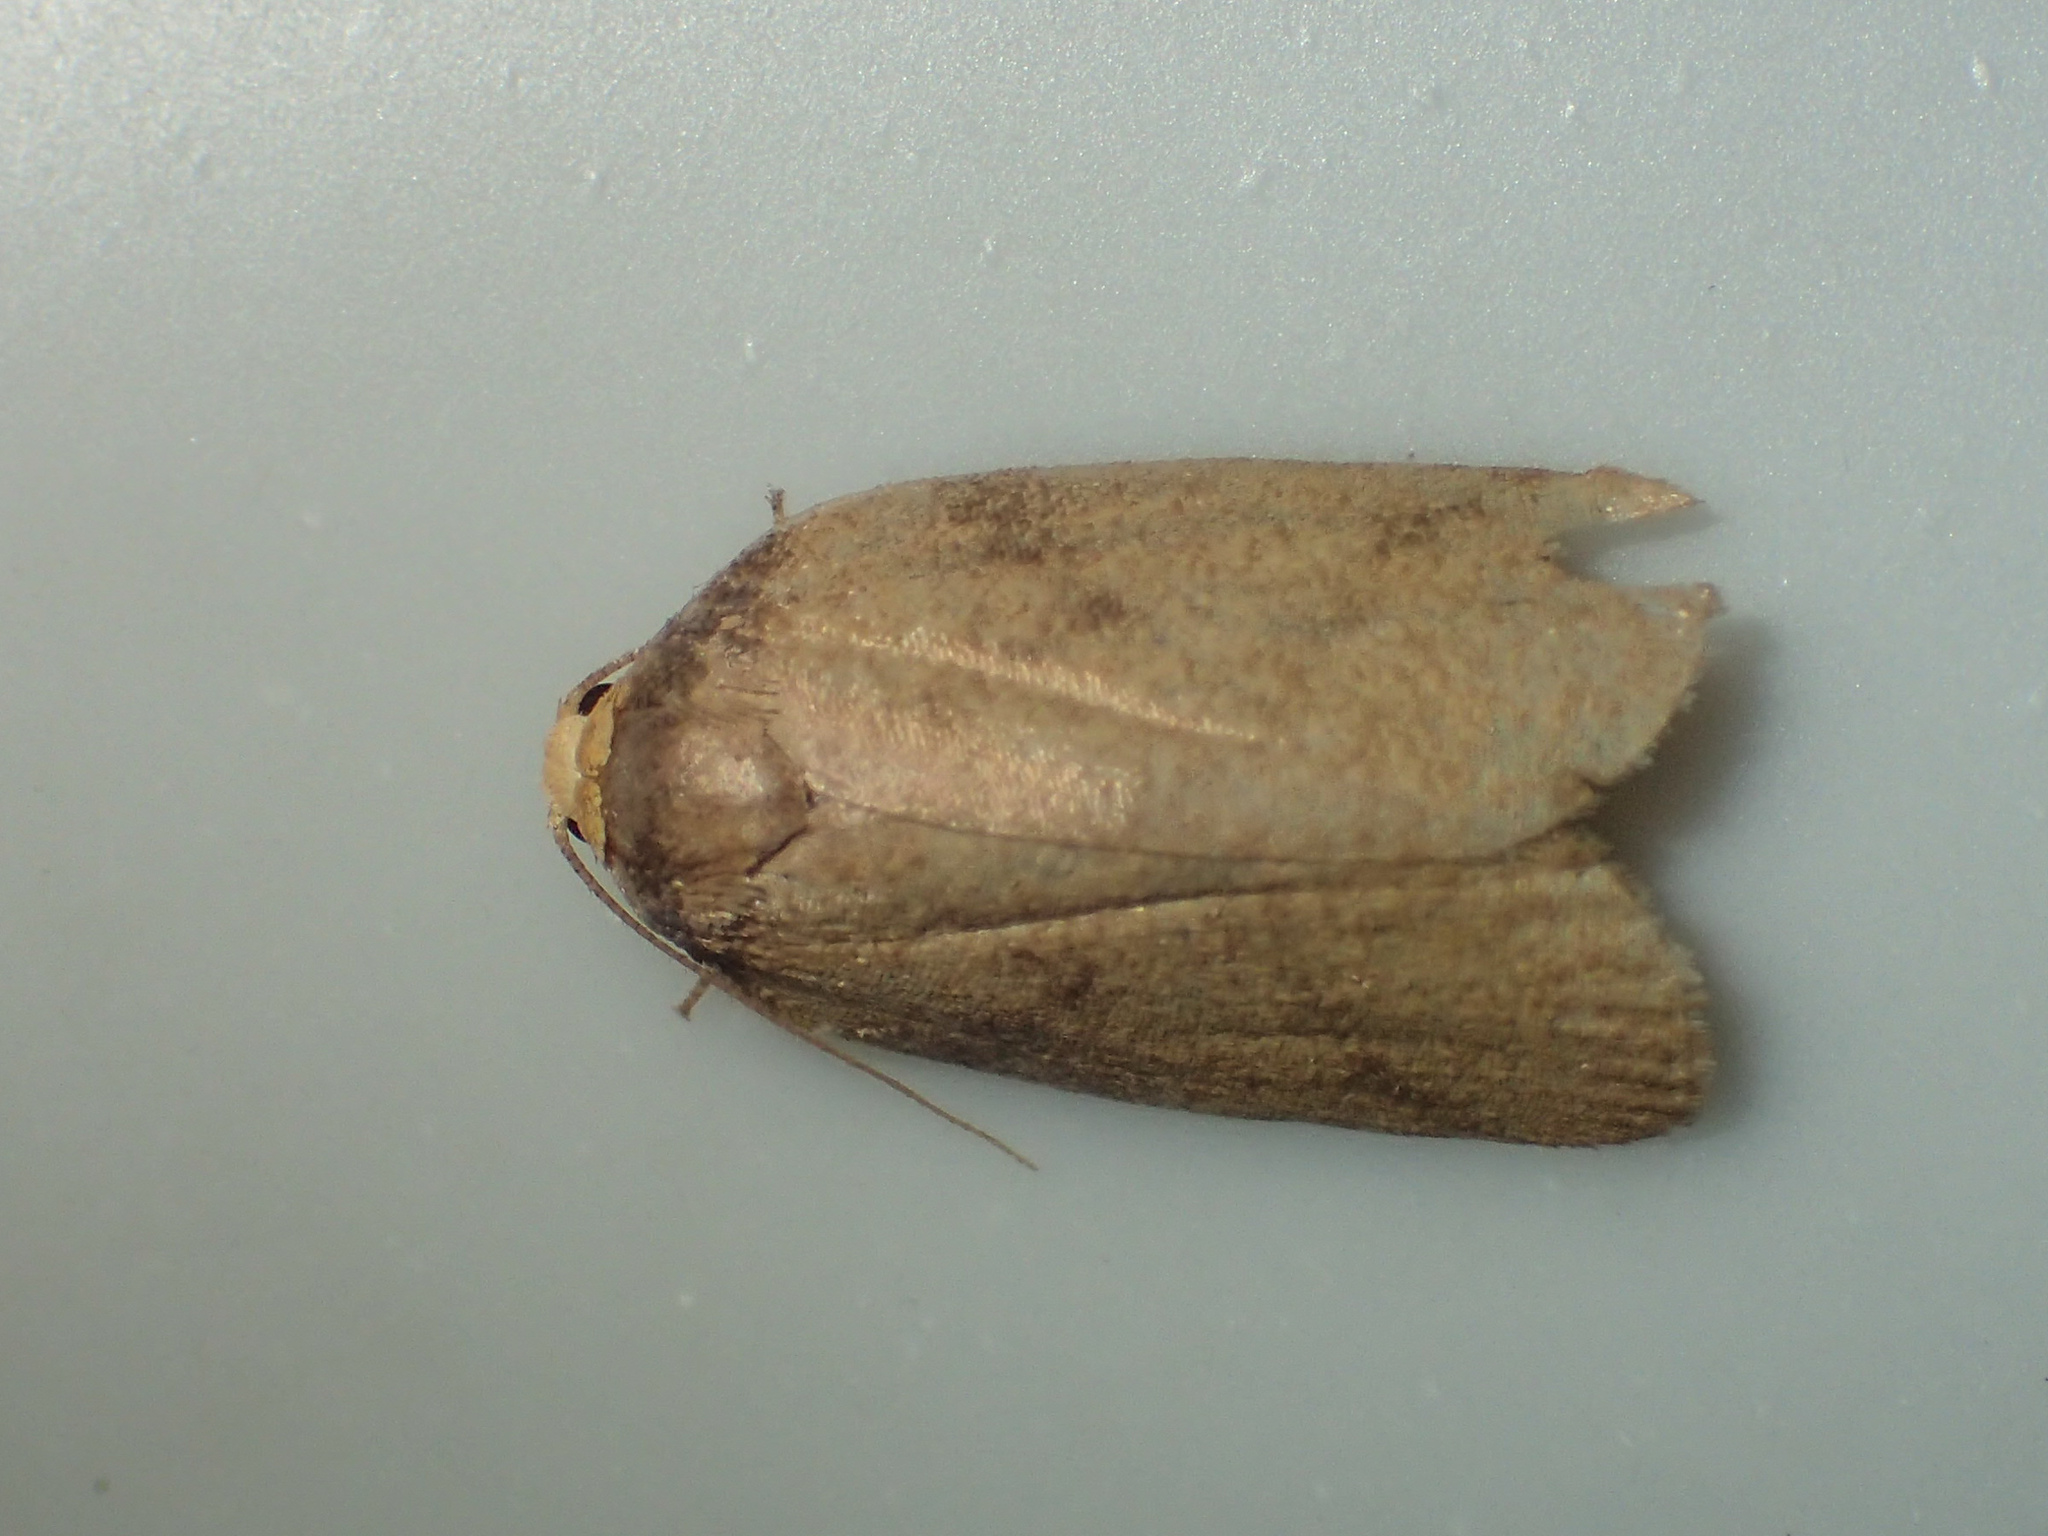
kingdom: Animalia
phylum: Arthropoda
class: Insecta
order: Lepidoptera
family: Erebidae
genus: Neoeugoa
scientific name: Neoeugoa humerana
